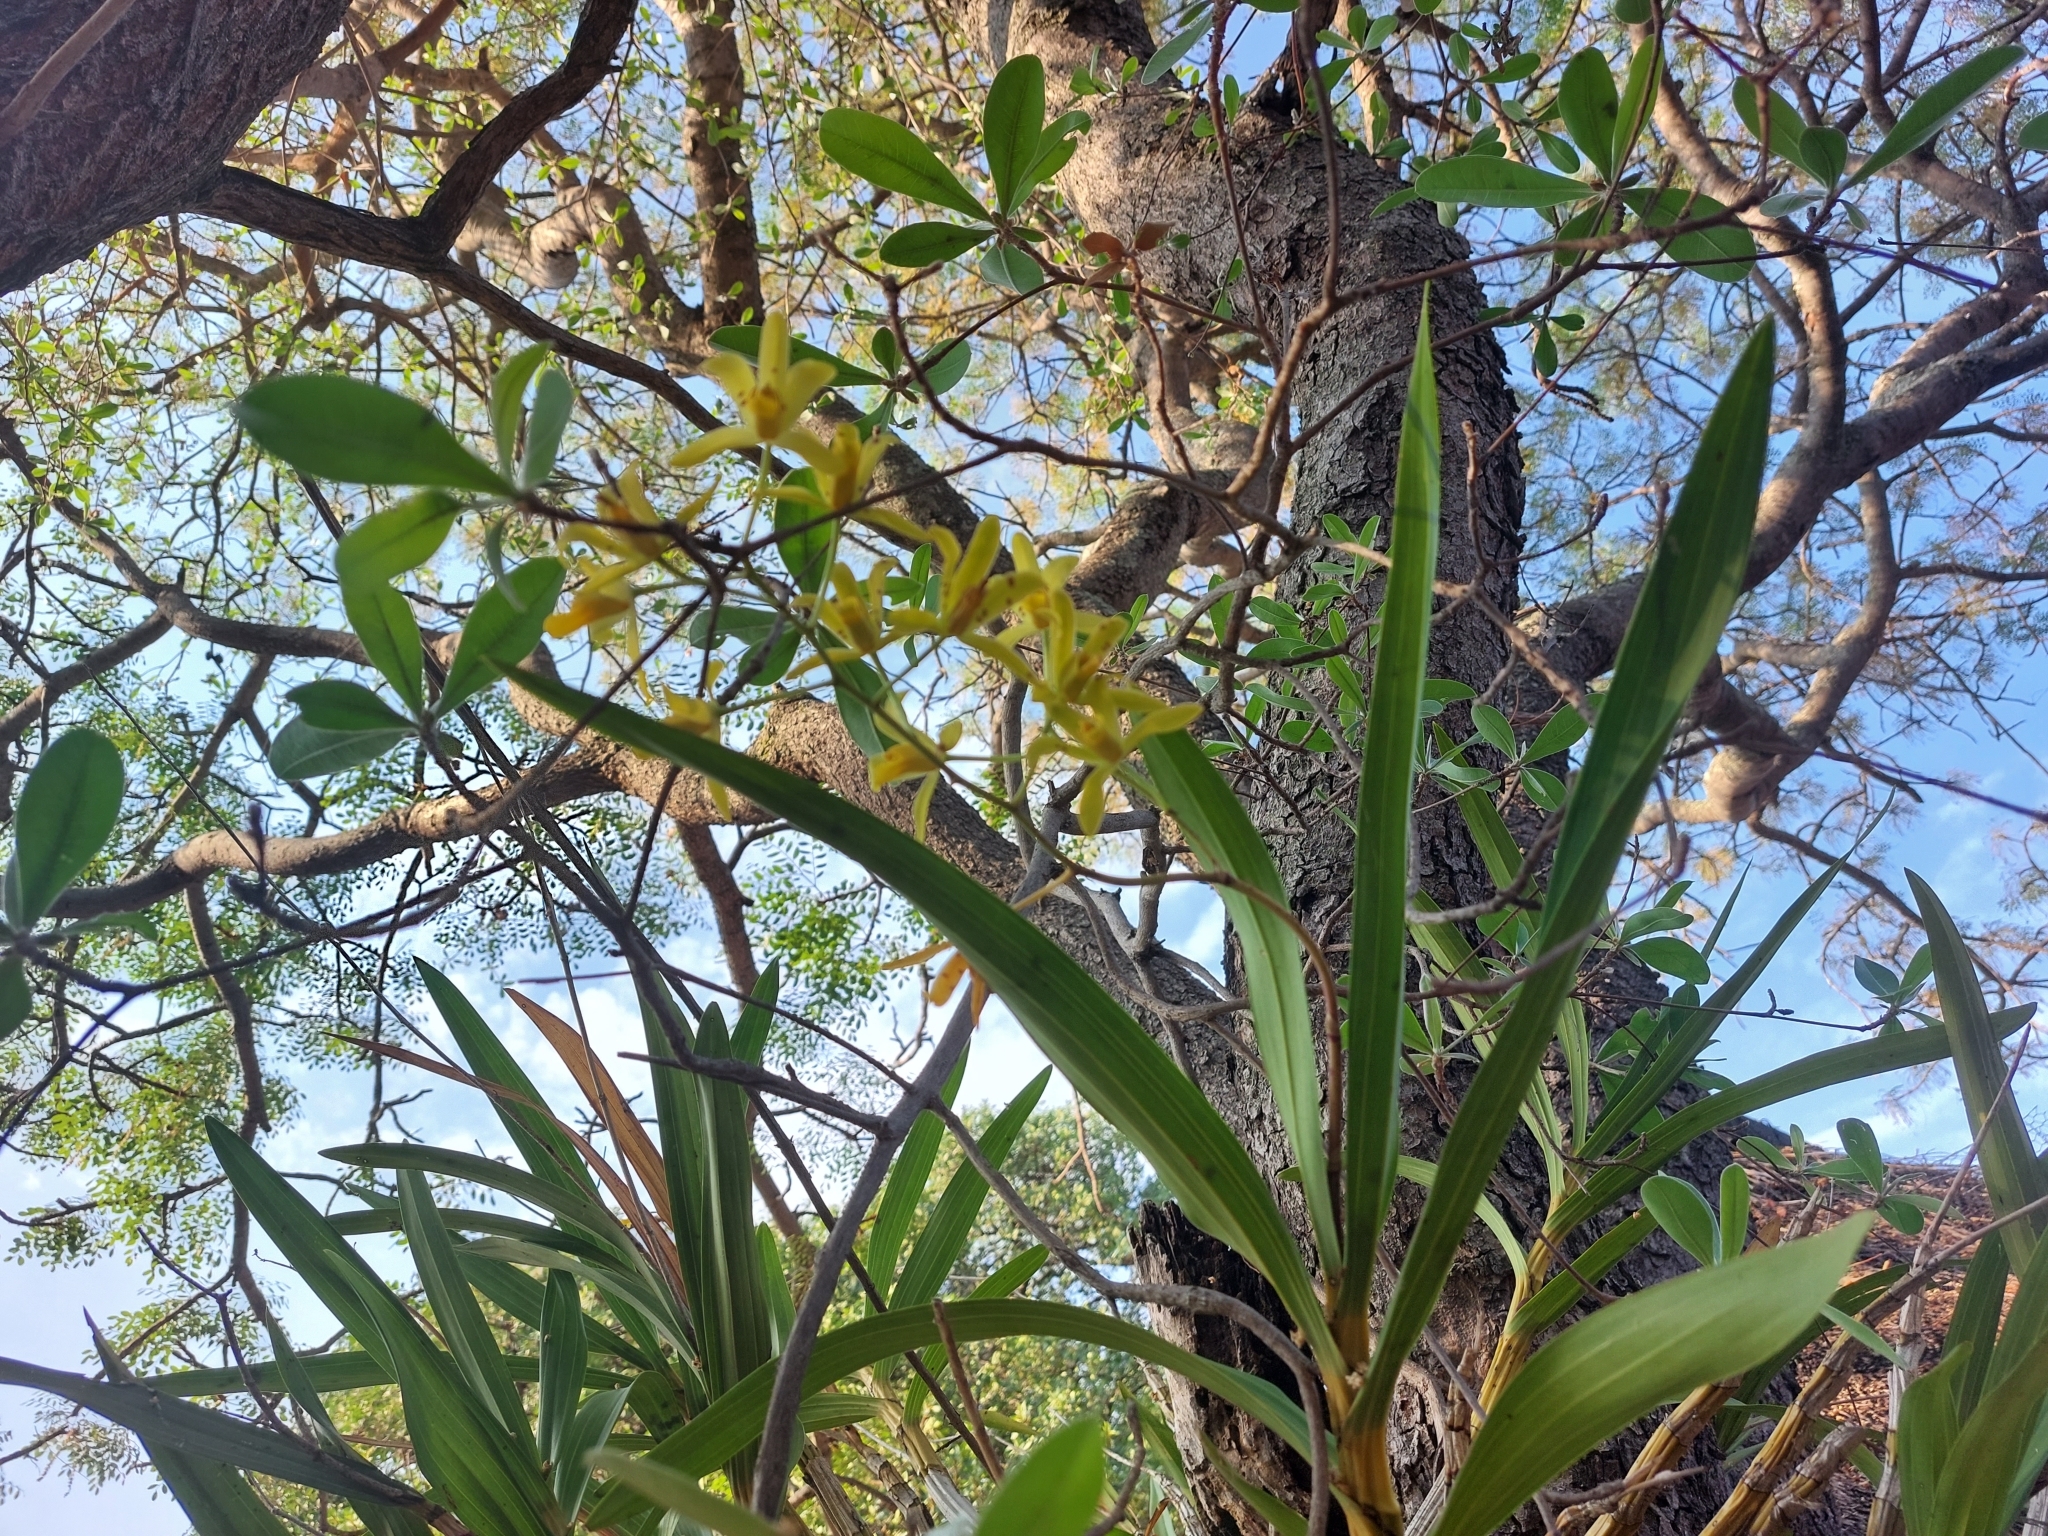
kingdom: Plantae
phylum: Tracheophyta
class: Liliopsida
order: Asparagales
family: Orchidaceae
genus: Ansellia
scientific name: Ansellia africana
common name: African ansellia
